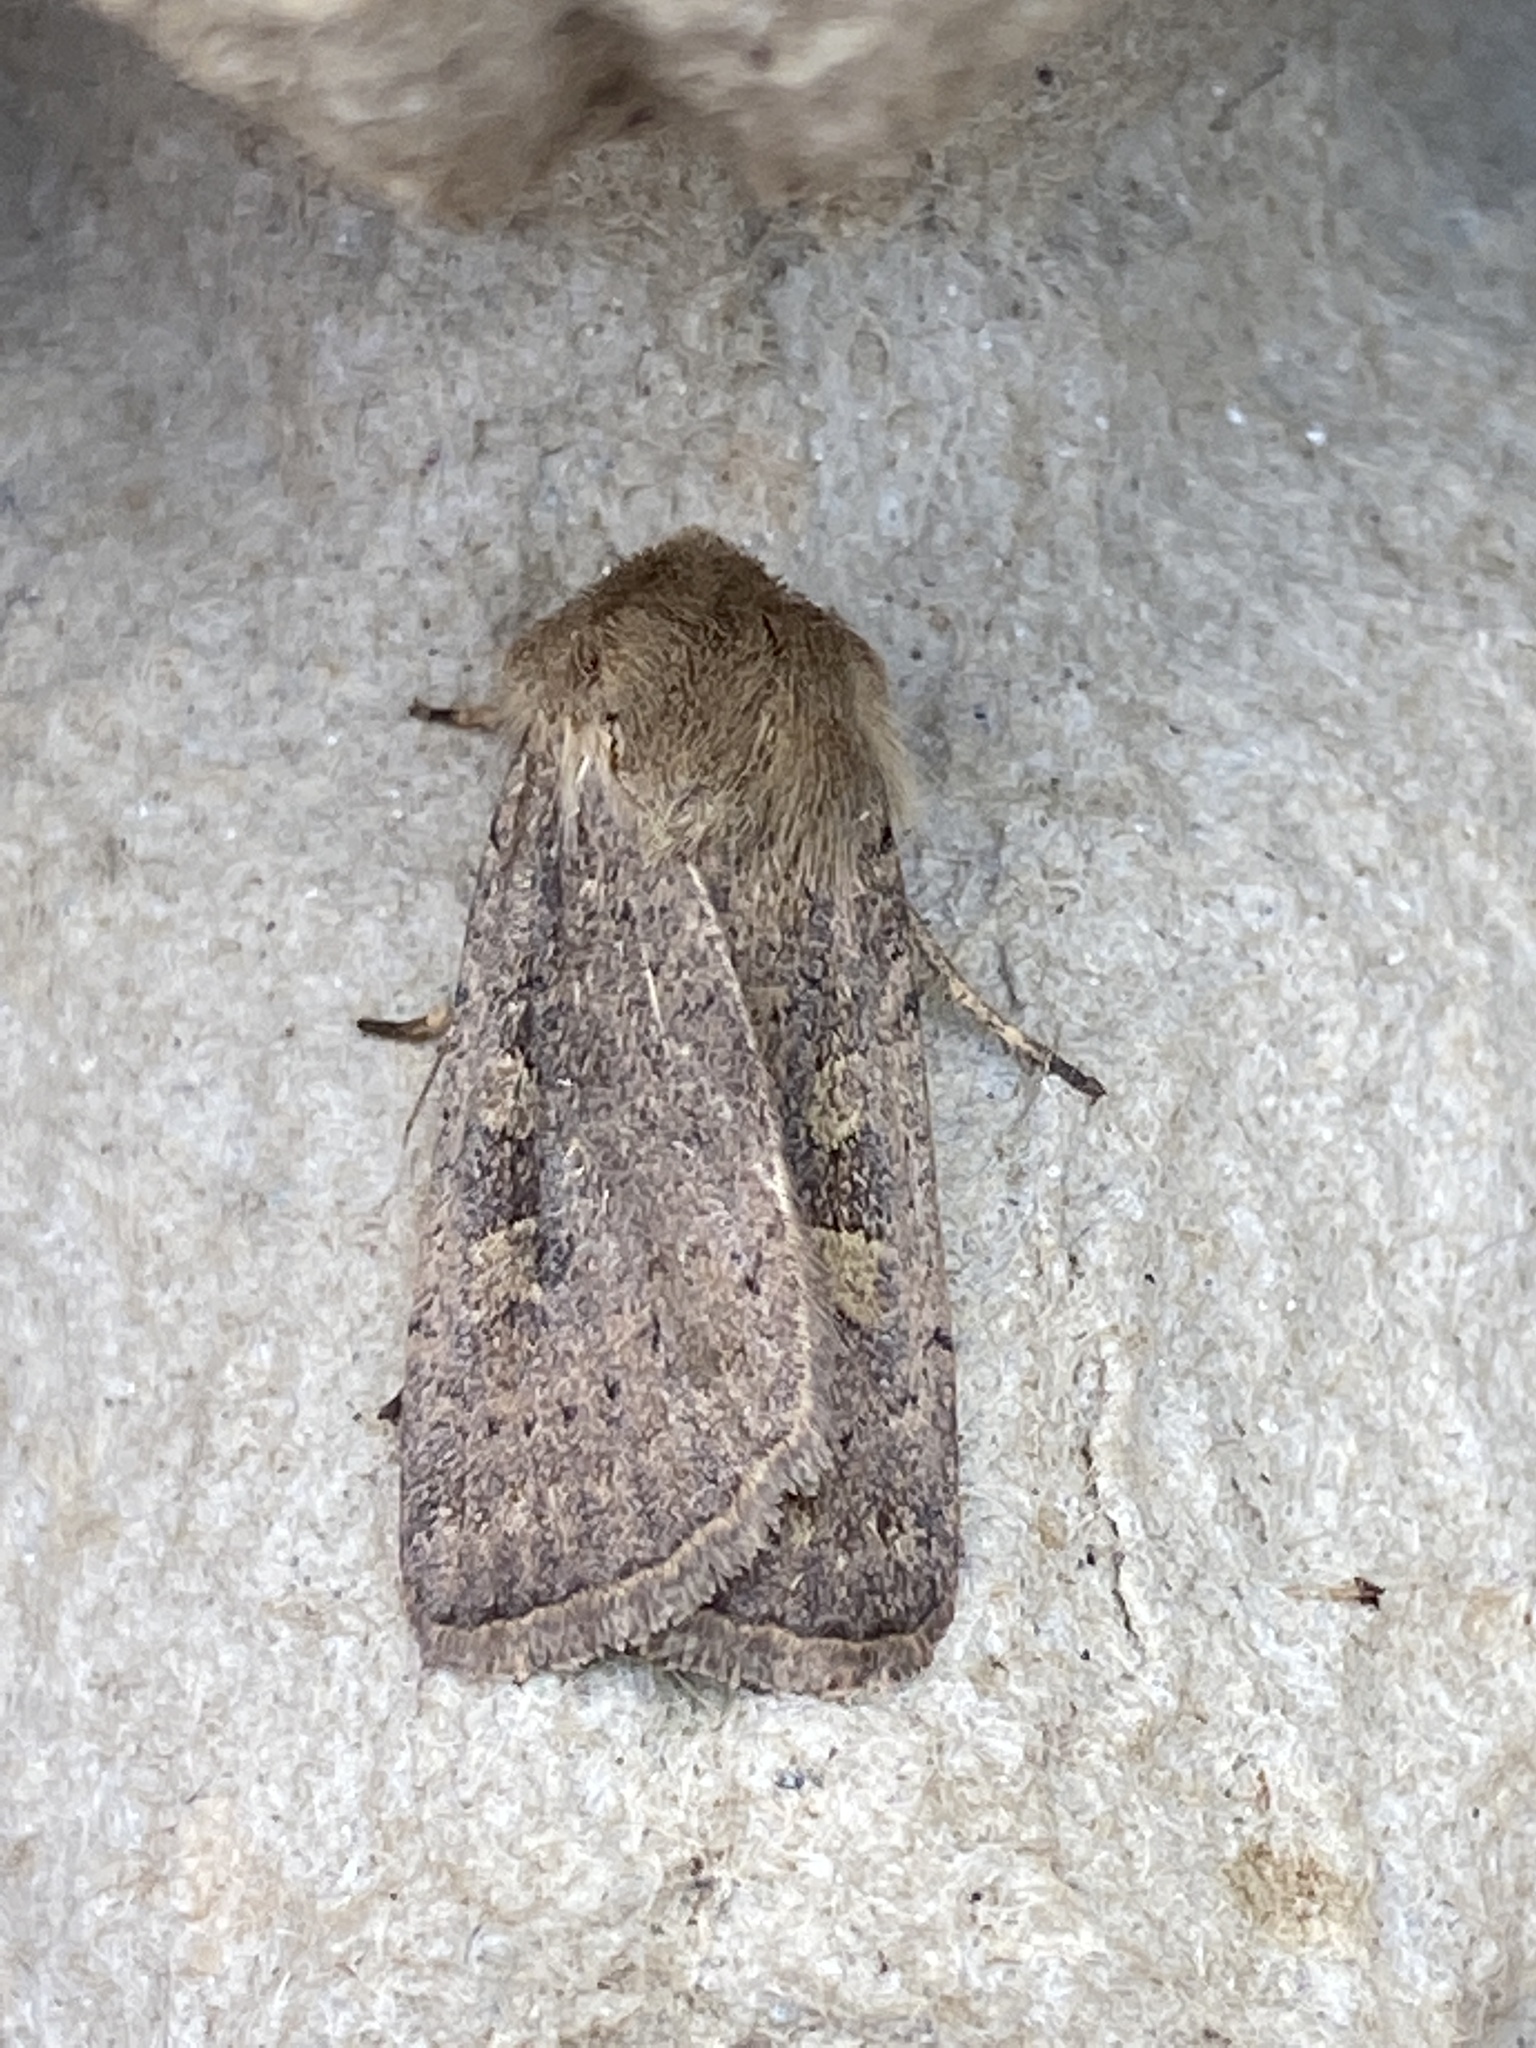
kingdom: Animalia
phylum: Arthropoda
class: Insecta
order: Lepidoptera
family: Noctuidae
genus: Xestia
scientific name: Xestia xanthographa
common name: Square-spot rustic
